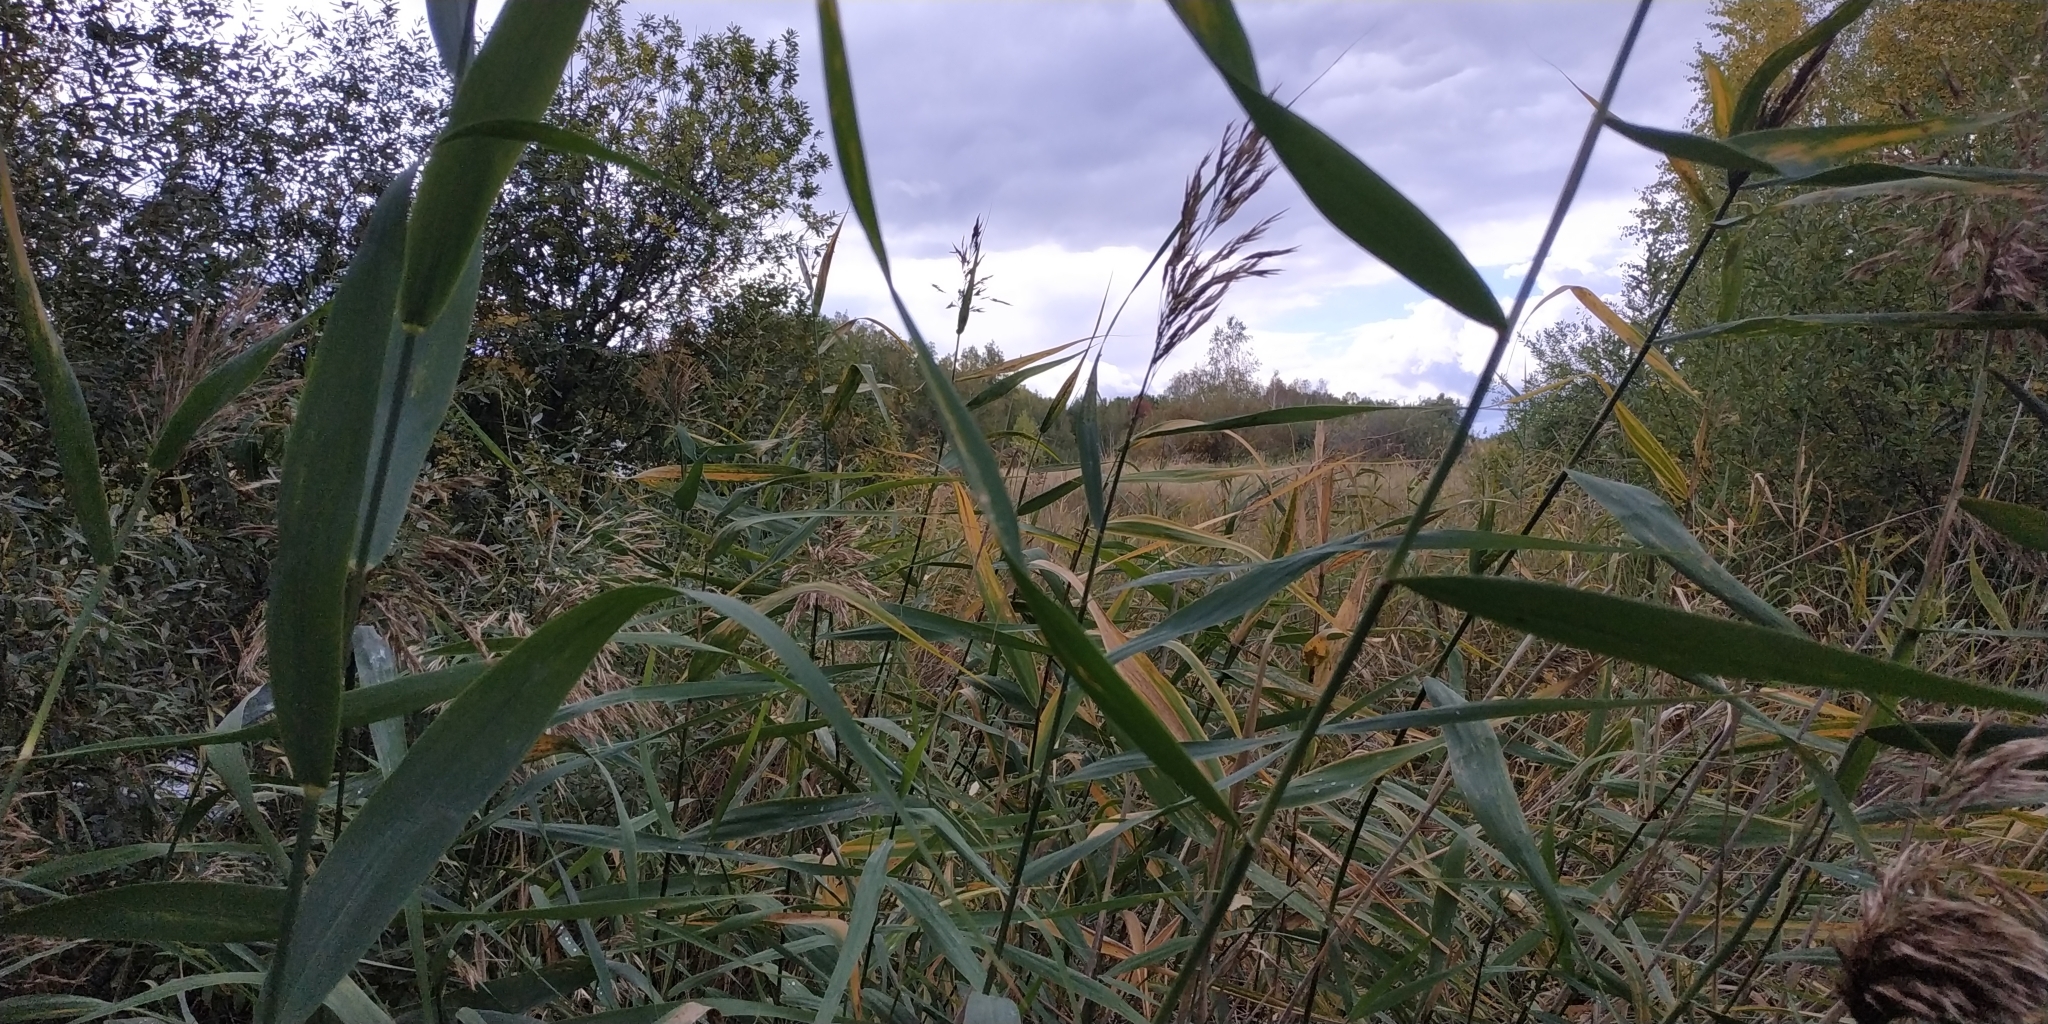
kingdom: Plantae
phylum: Tracheophyta
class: Liliopsida
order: Poales
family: Poaceae
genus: Phragmites
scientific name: Phragmites australis
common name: Common reed
